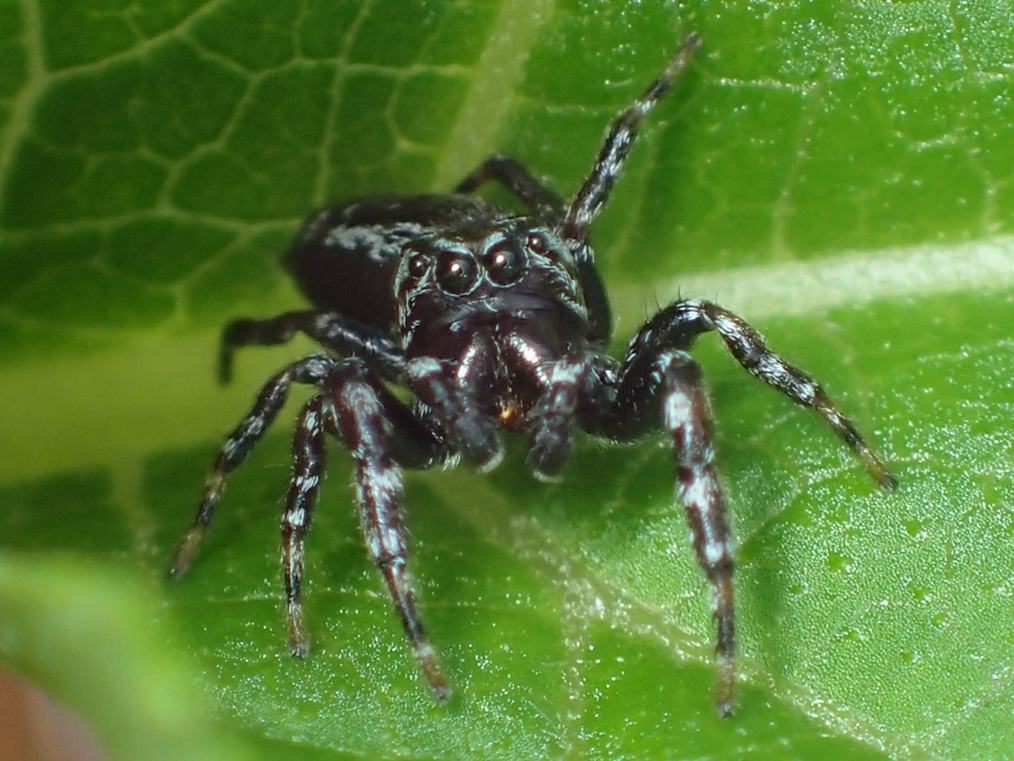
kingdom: Animalia
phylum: Arthropoda
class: Arachnida
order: Araneae
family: Salticidae
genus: Pelegrina
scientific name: Pelegrina galathea
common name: Jumping spiders
